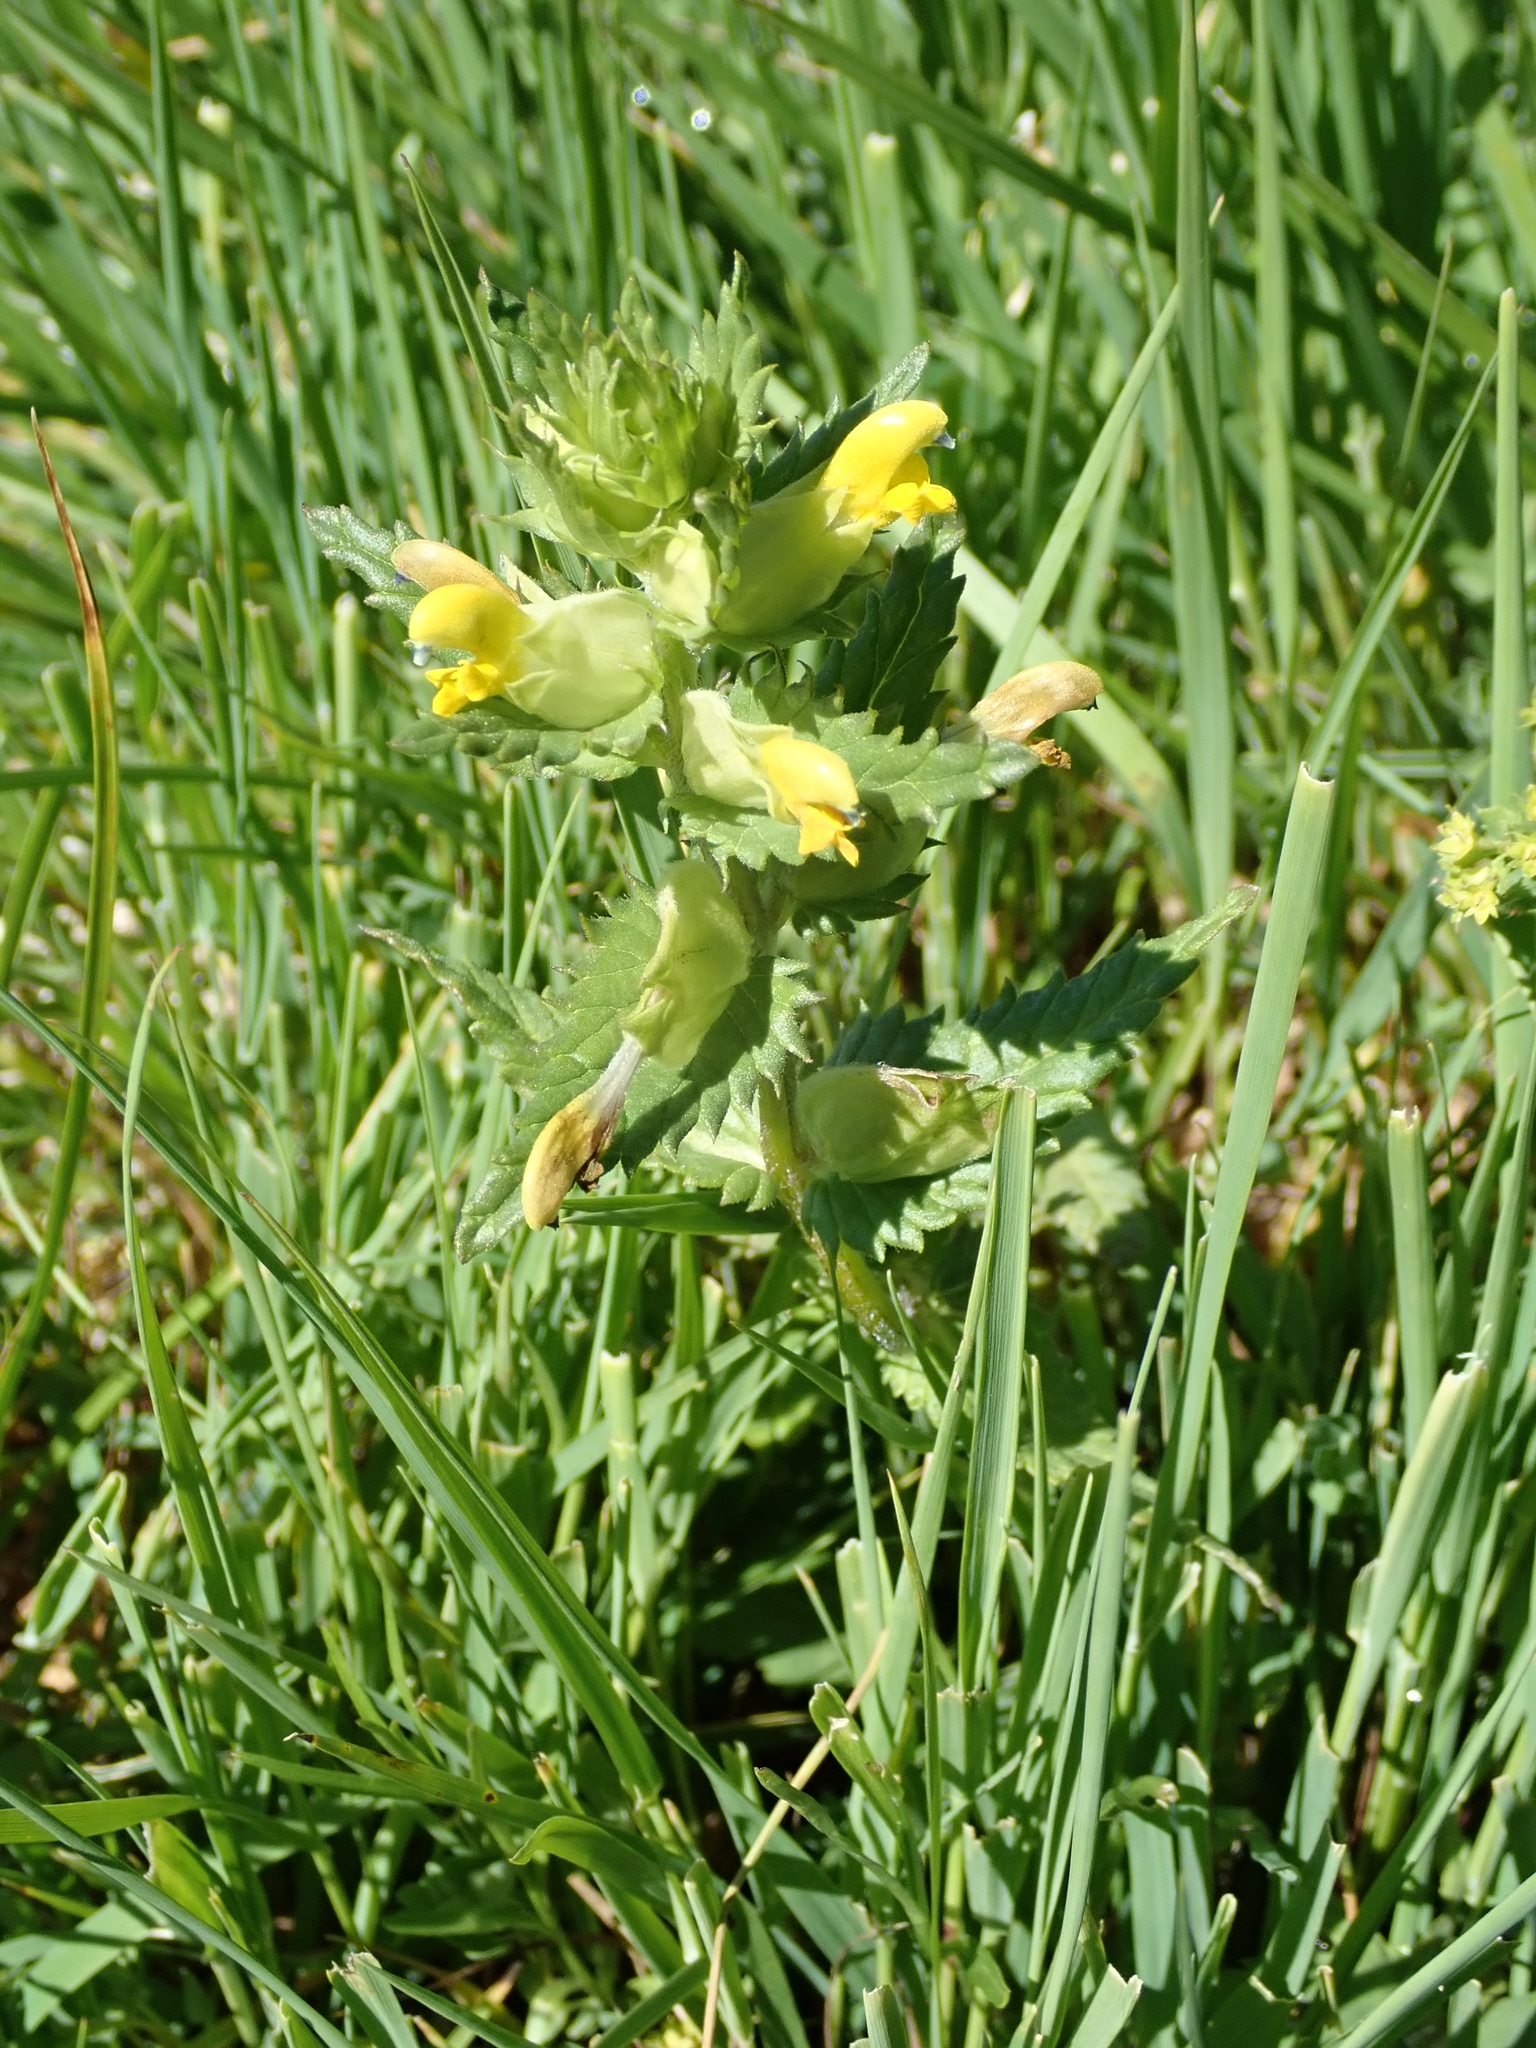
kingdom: Plantae
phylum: Tracheophyta
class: Magnoliopsida
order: Lamiales
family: Orobanchaceae
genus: Rhinanthus
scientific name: Rhinanthus minor
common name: Yellow-rattle
